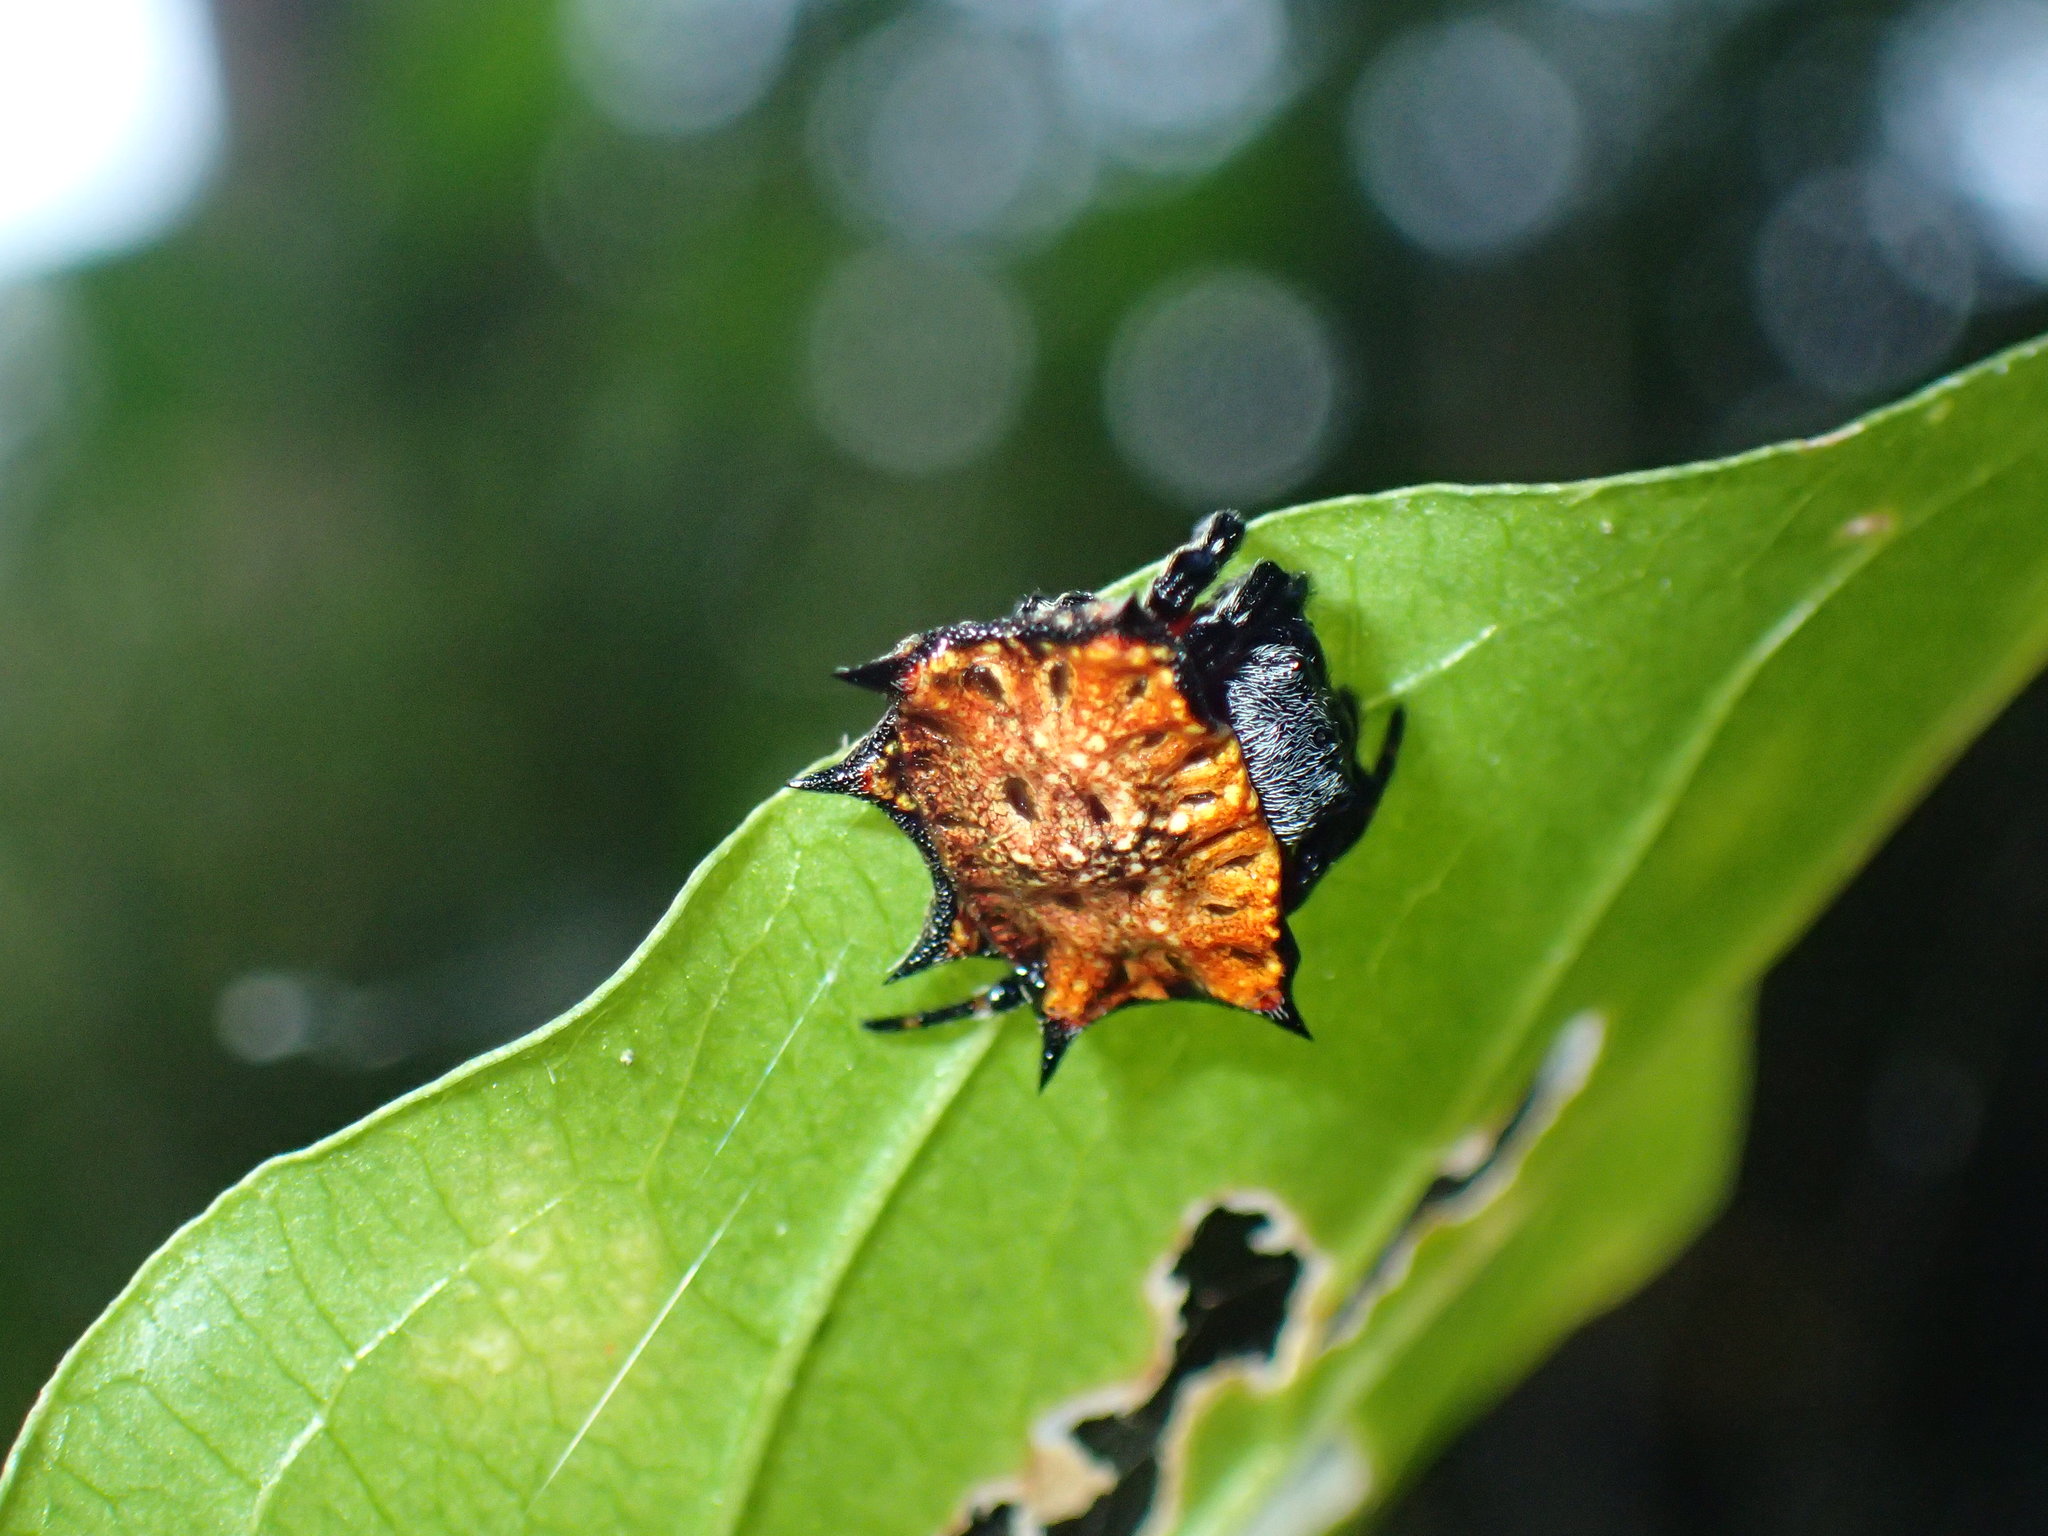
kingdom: Animalia
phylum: Arthropoda
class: Arachnida
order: Araneae
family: Araneidae
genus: Isoxya
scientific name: Isoxya tabulata
